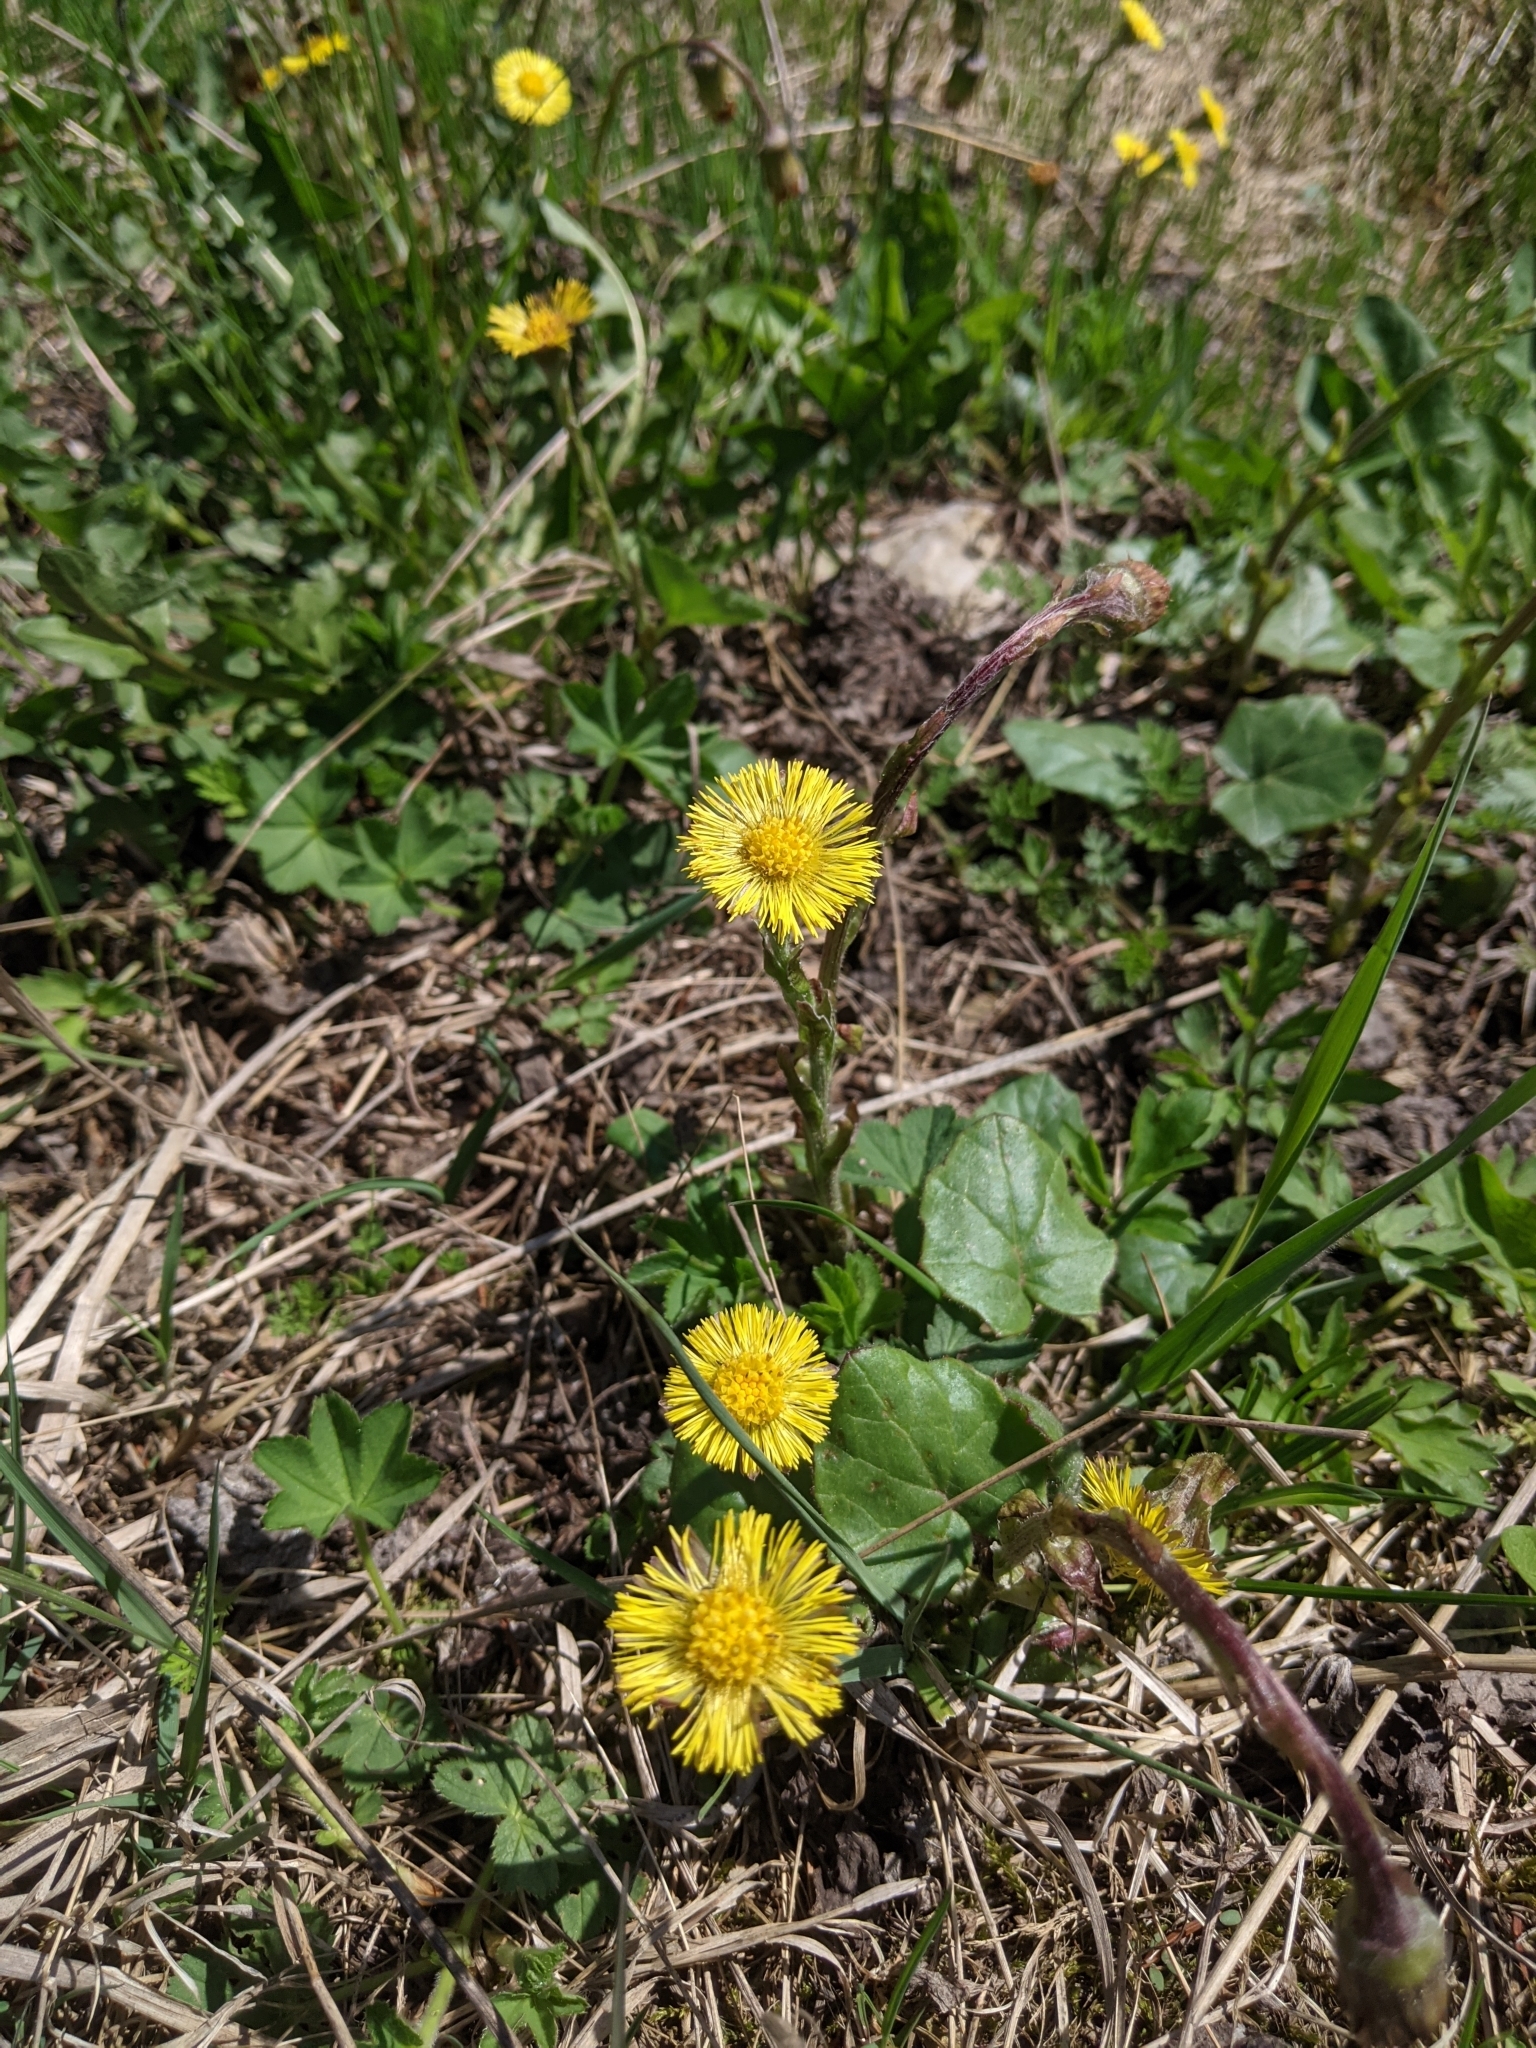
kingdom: Plantae
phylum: Tracheophyta
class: Magnoliopsida
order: Asterales
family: Asteraceae
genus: Tussilago
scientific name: Tussilago farfara
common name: Coltsfoot
